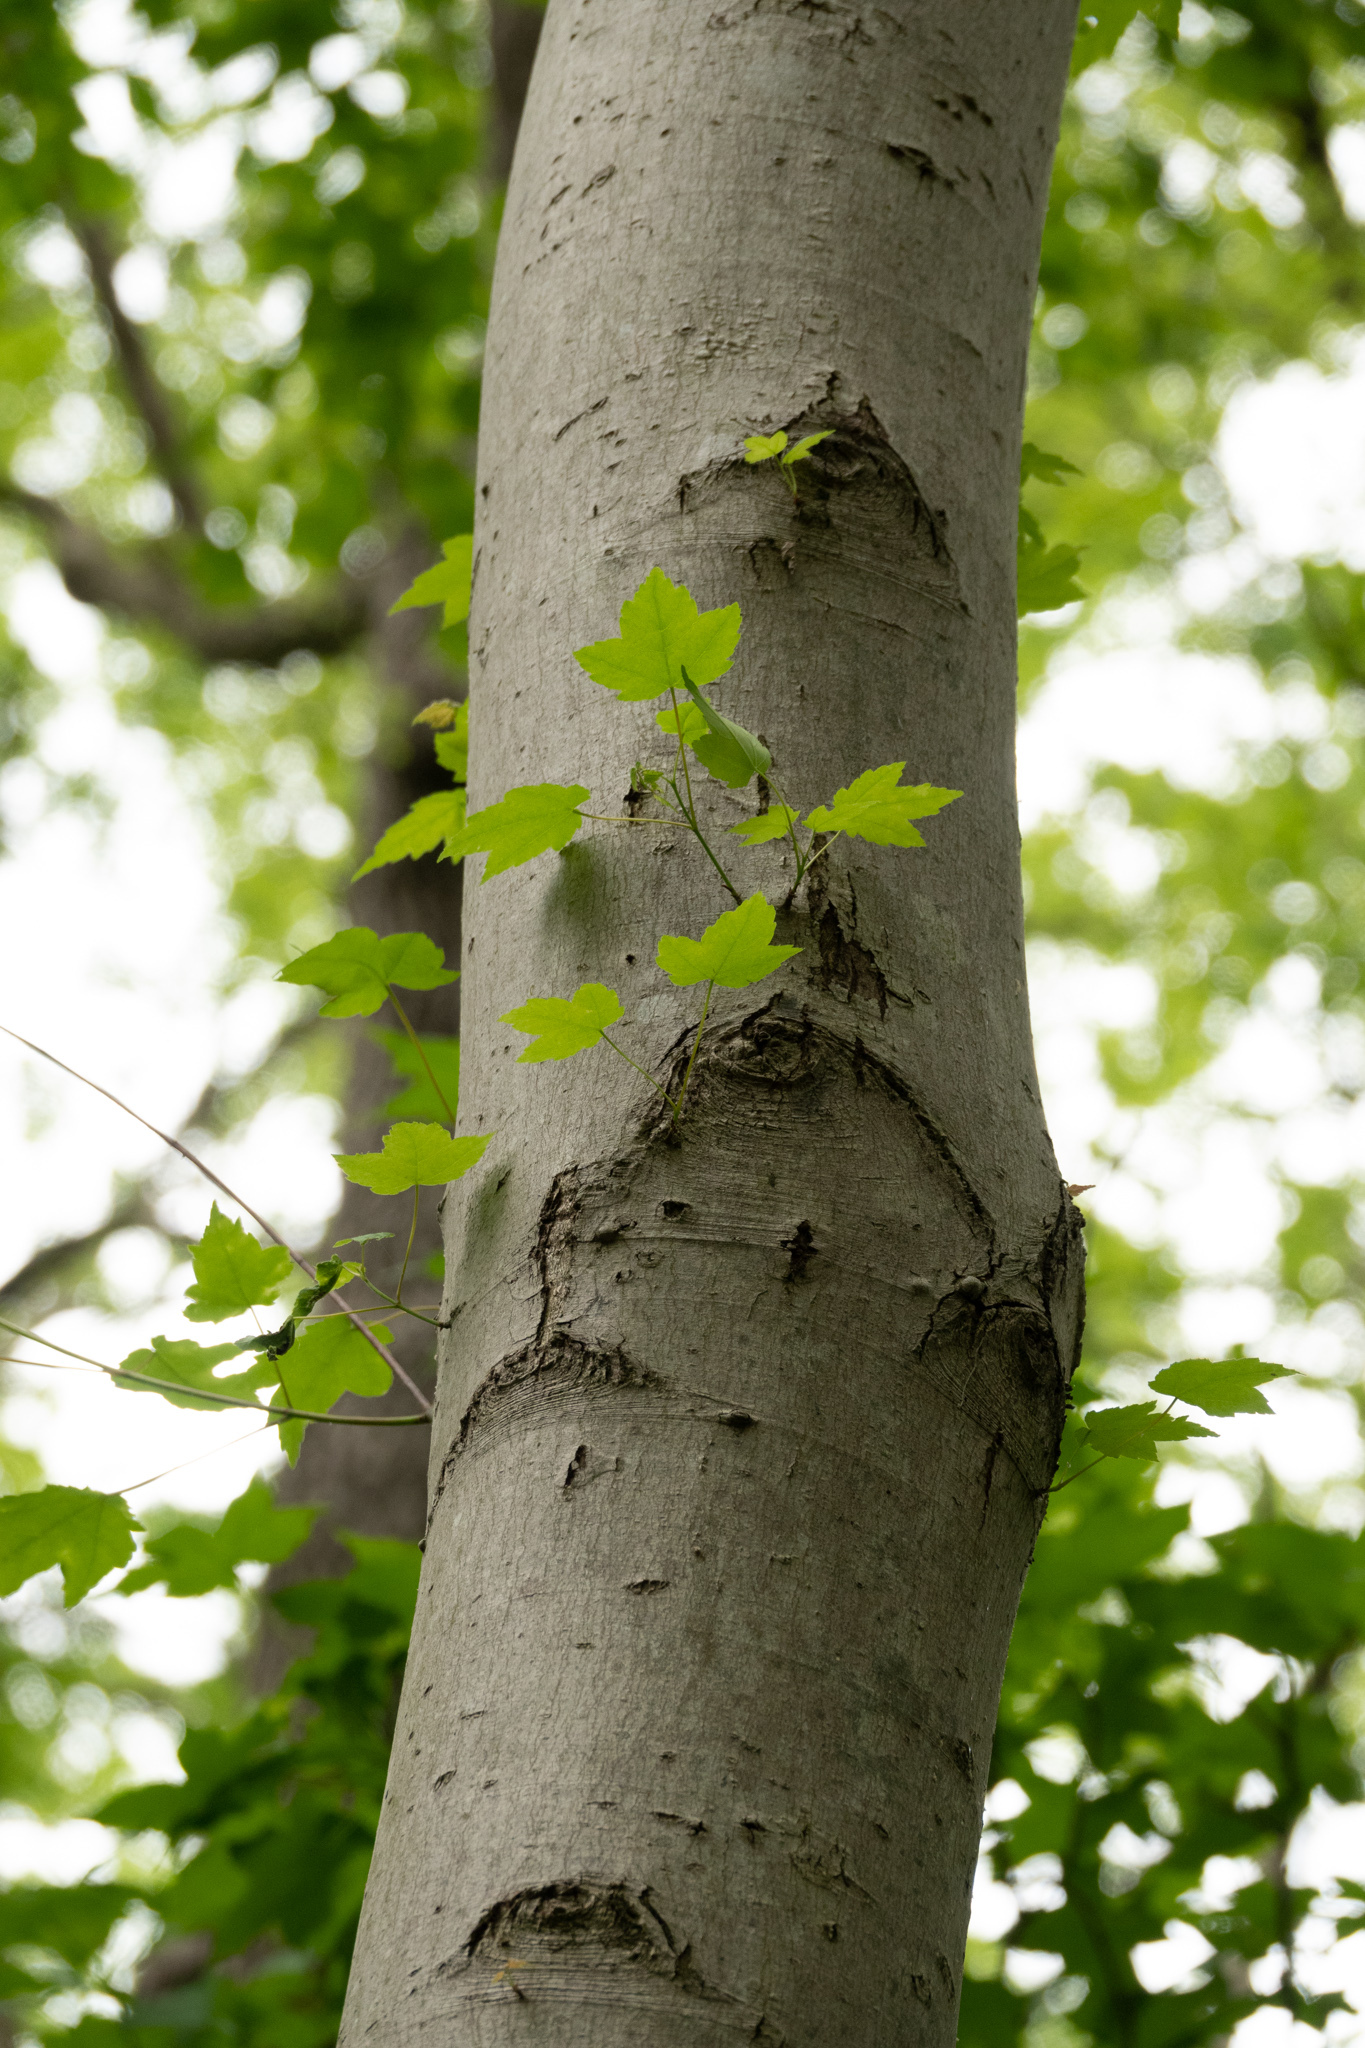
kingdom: Plantae
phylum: Tracheophyta
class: Magnoliopsida
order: Sapindales
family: Sapindaceae
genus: Acer
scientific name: Acer rubrum
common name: Red maple
